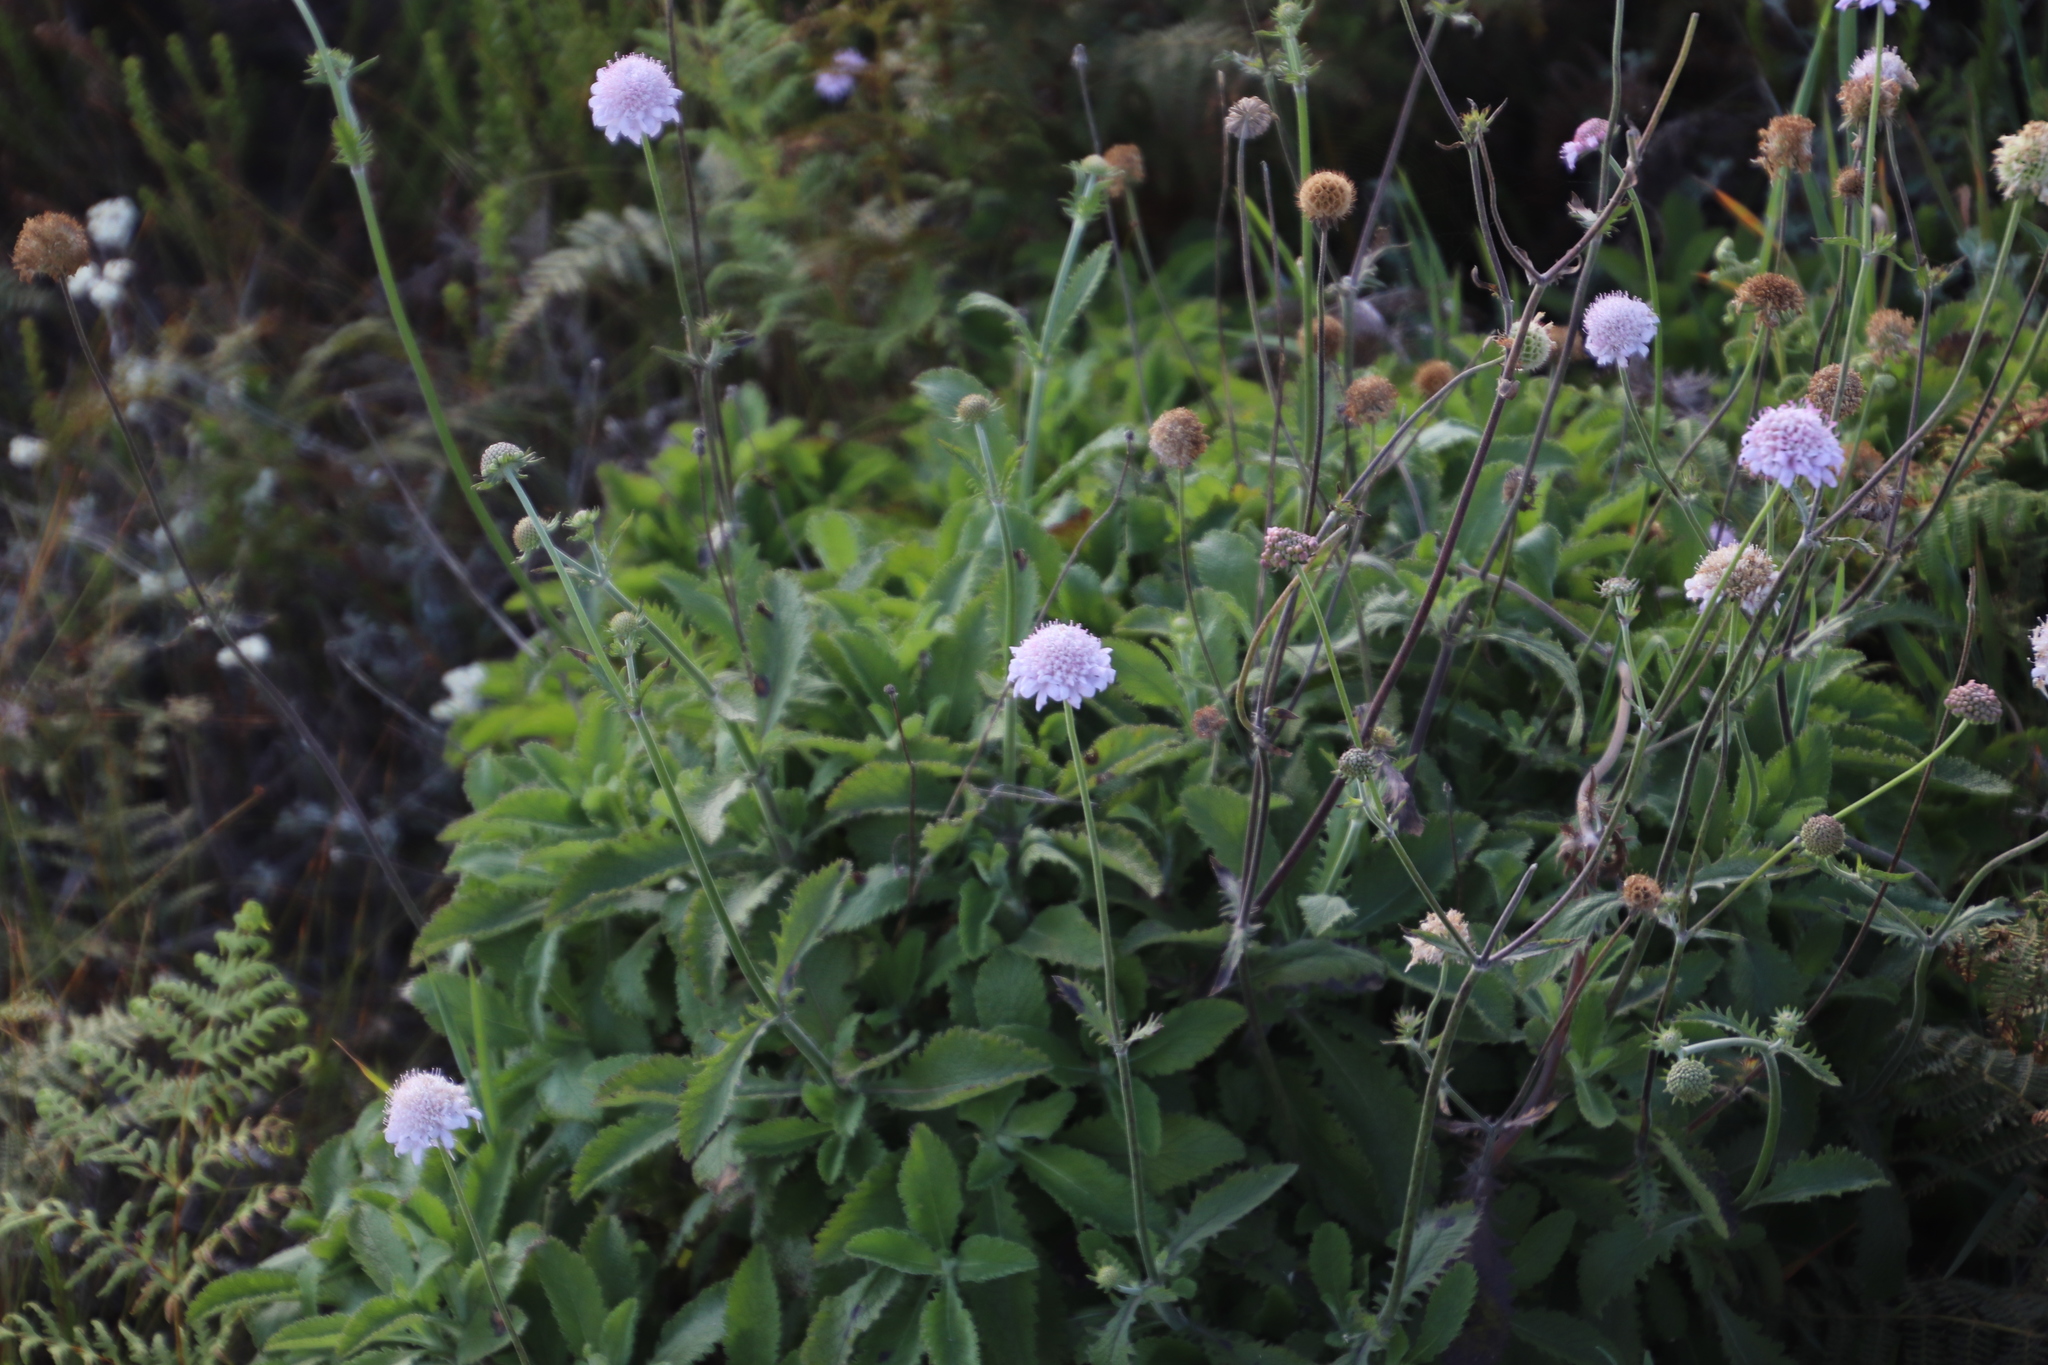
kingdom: Plantae
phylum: Tracheophyta
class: Magnoliopsida
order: Dipsacales
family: Caprifoliaceae
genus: Scabiosa
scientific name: Scabiosa africana
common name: Cape scabious
